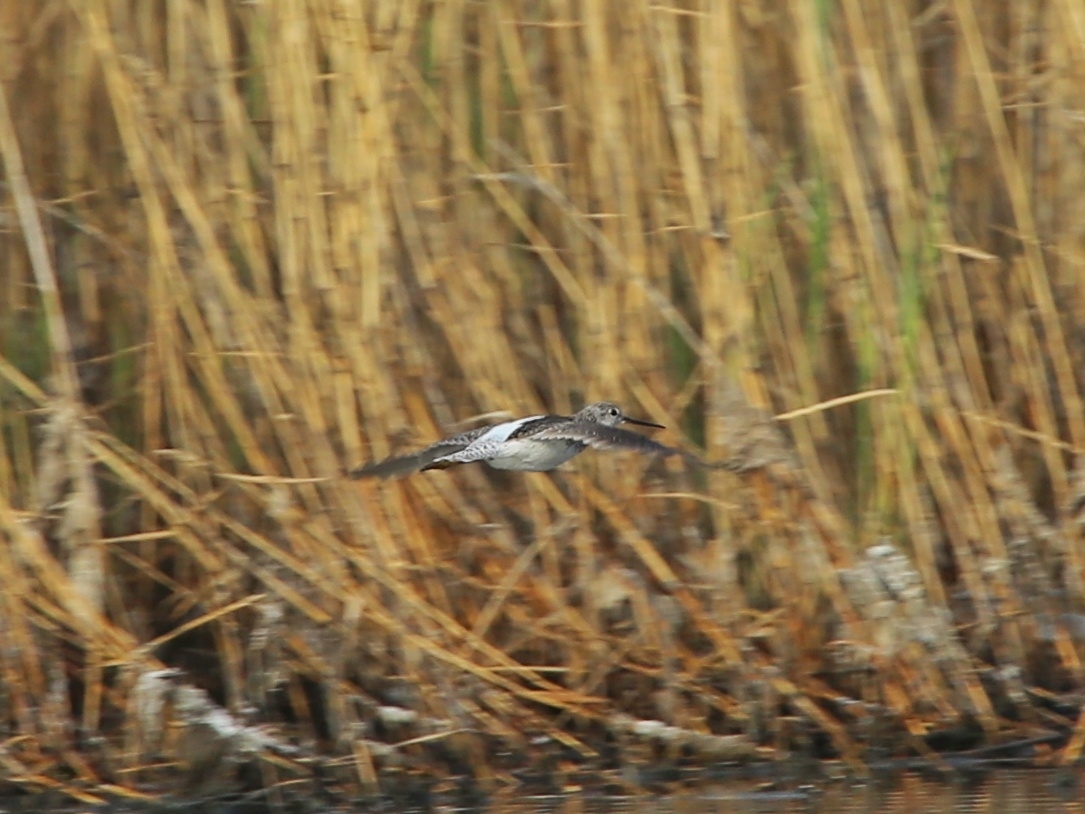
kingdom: Animalia
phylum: Chordata
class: Aves
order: Charadriiformes
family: Scolopacidae
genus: Tringa
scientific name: Tringa stagnatilis
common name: Marsh sandpiper
